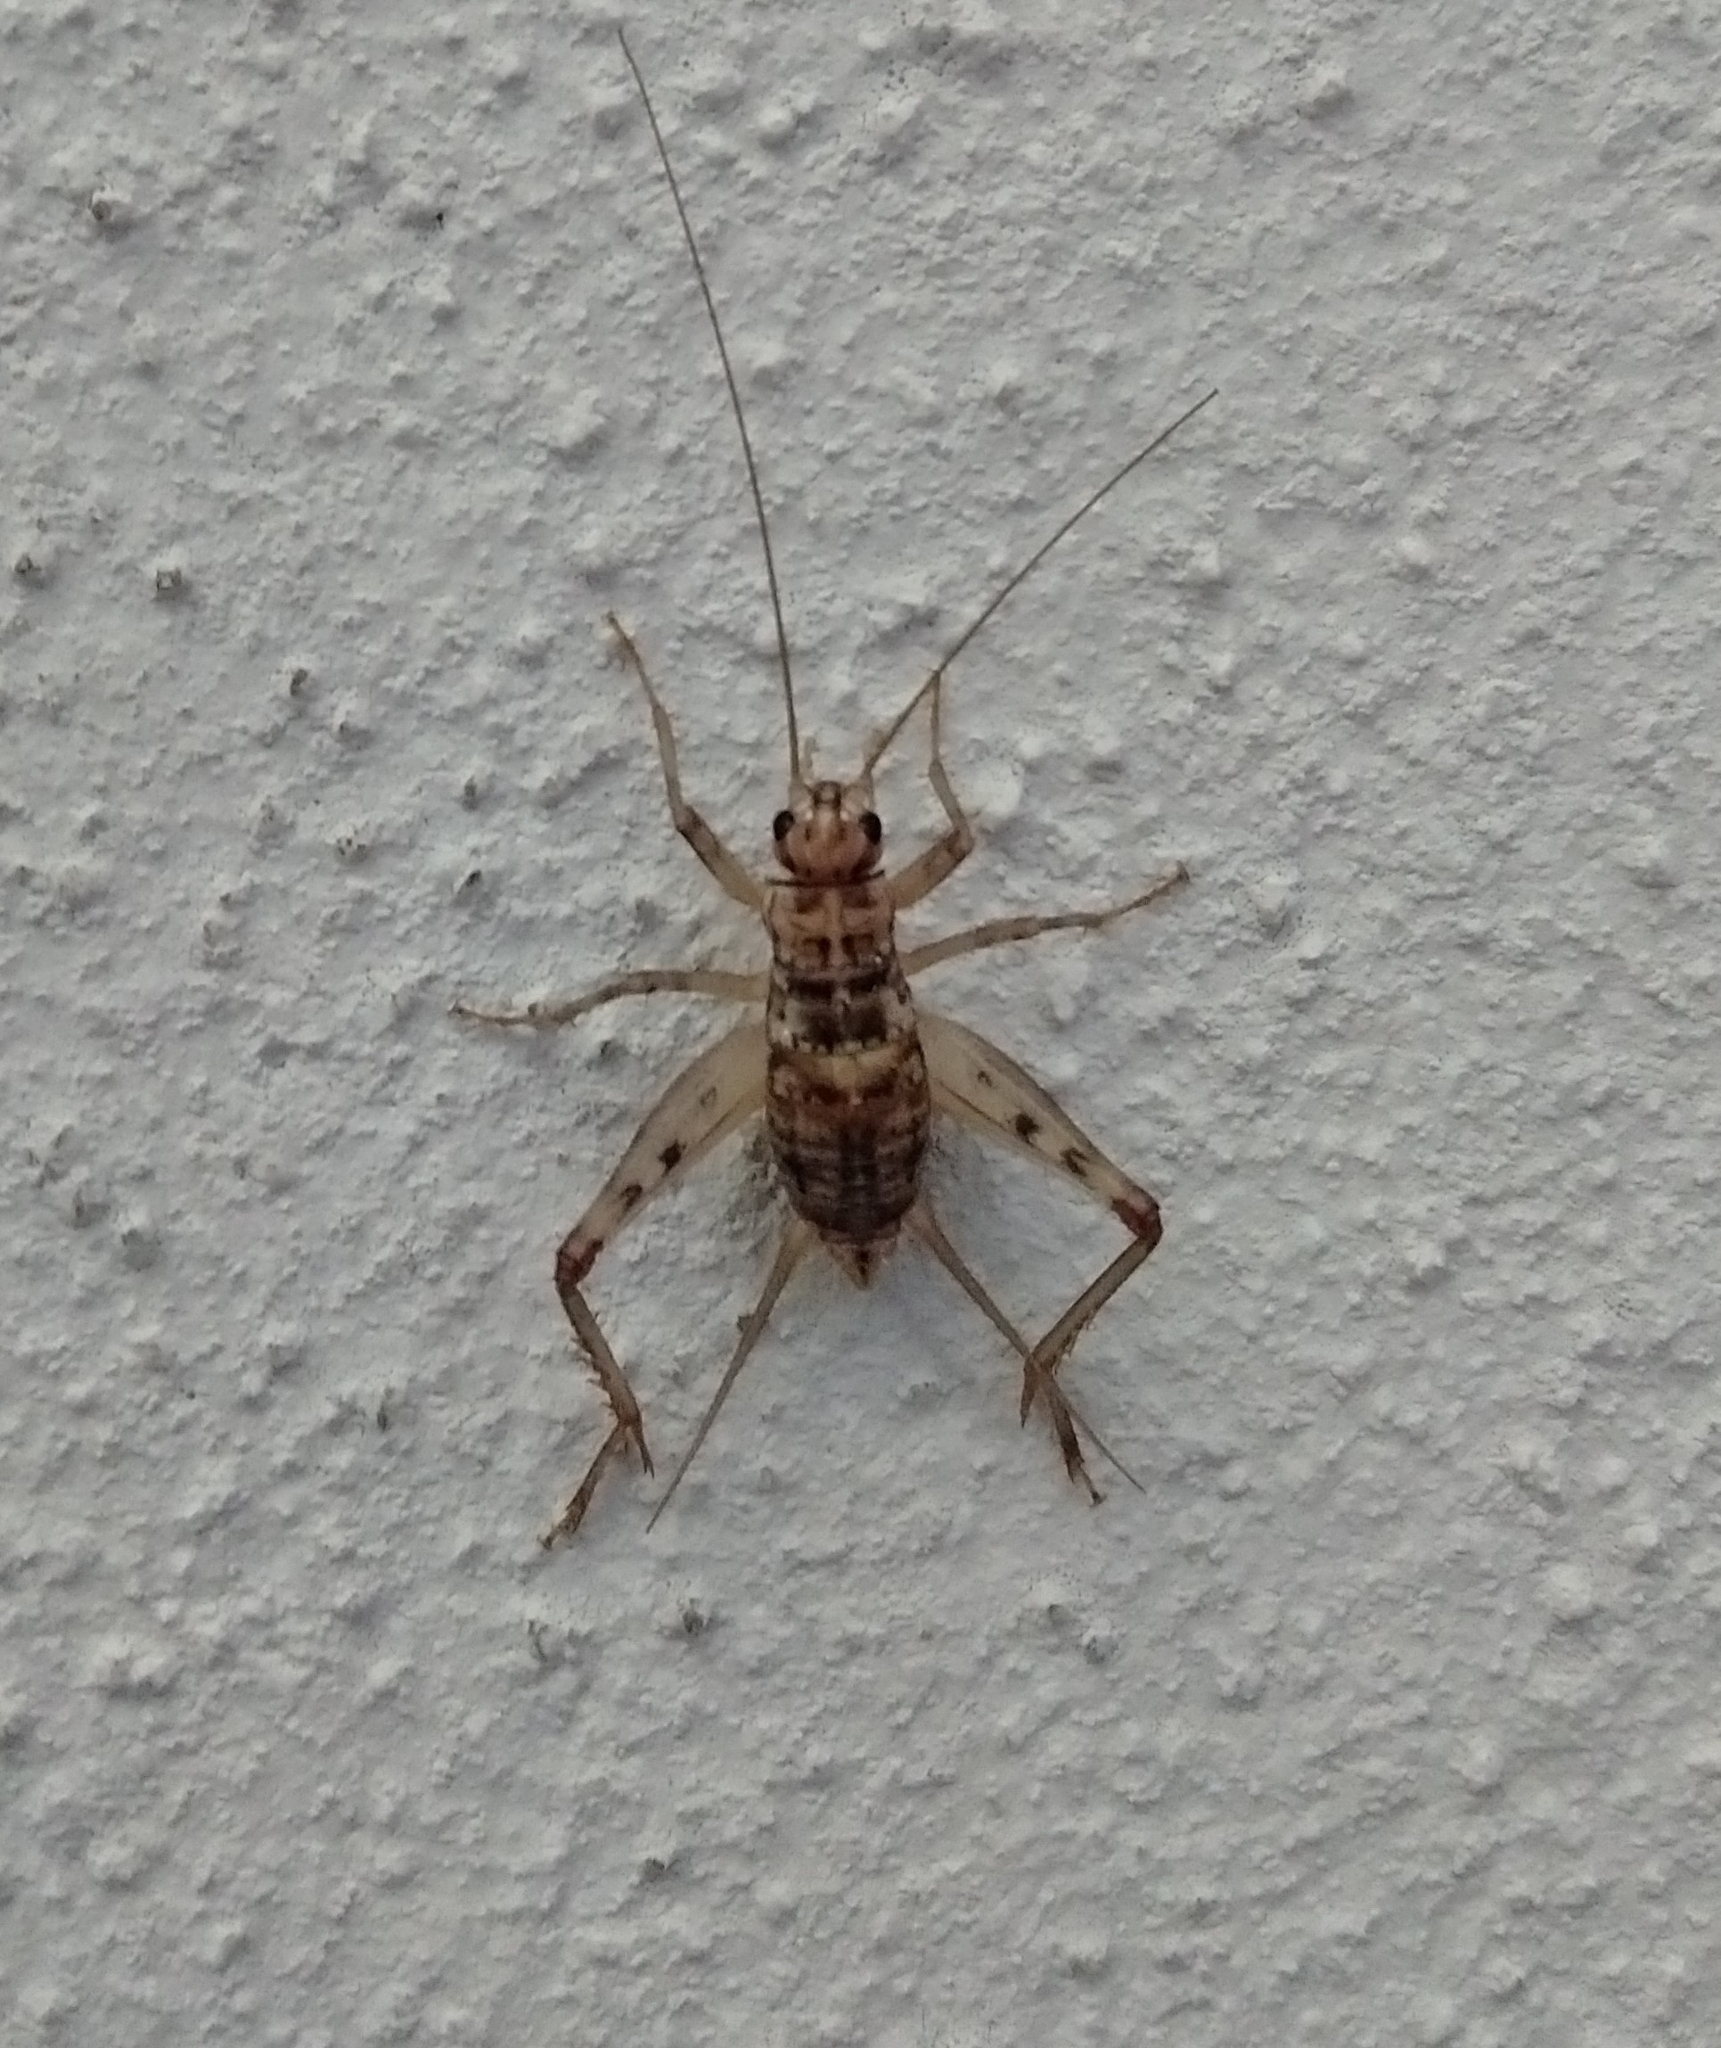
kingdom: Animalia
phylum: Arthropoda
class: Insecta
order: Orthoptera
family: Gryllidae
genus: Gryllomorpha
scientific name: Gryllomorpha dalmatina
